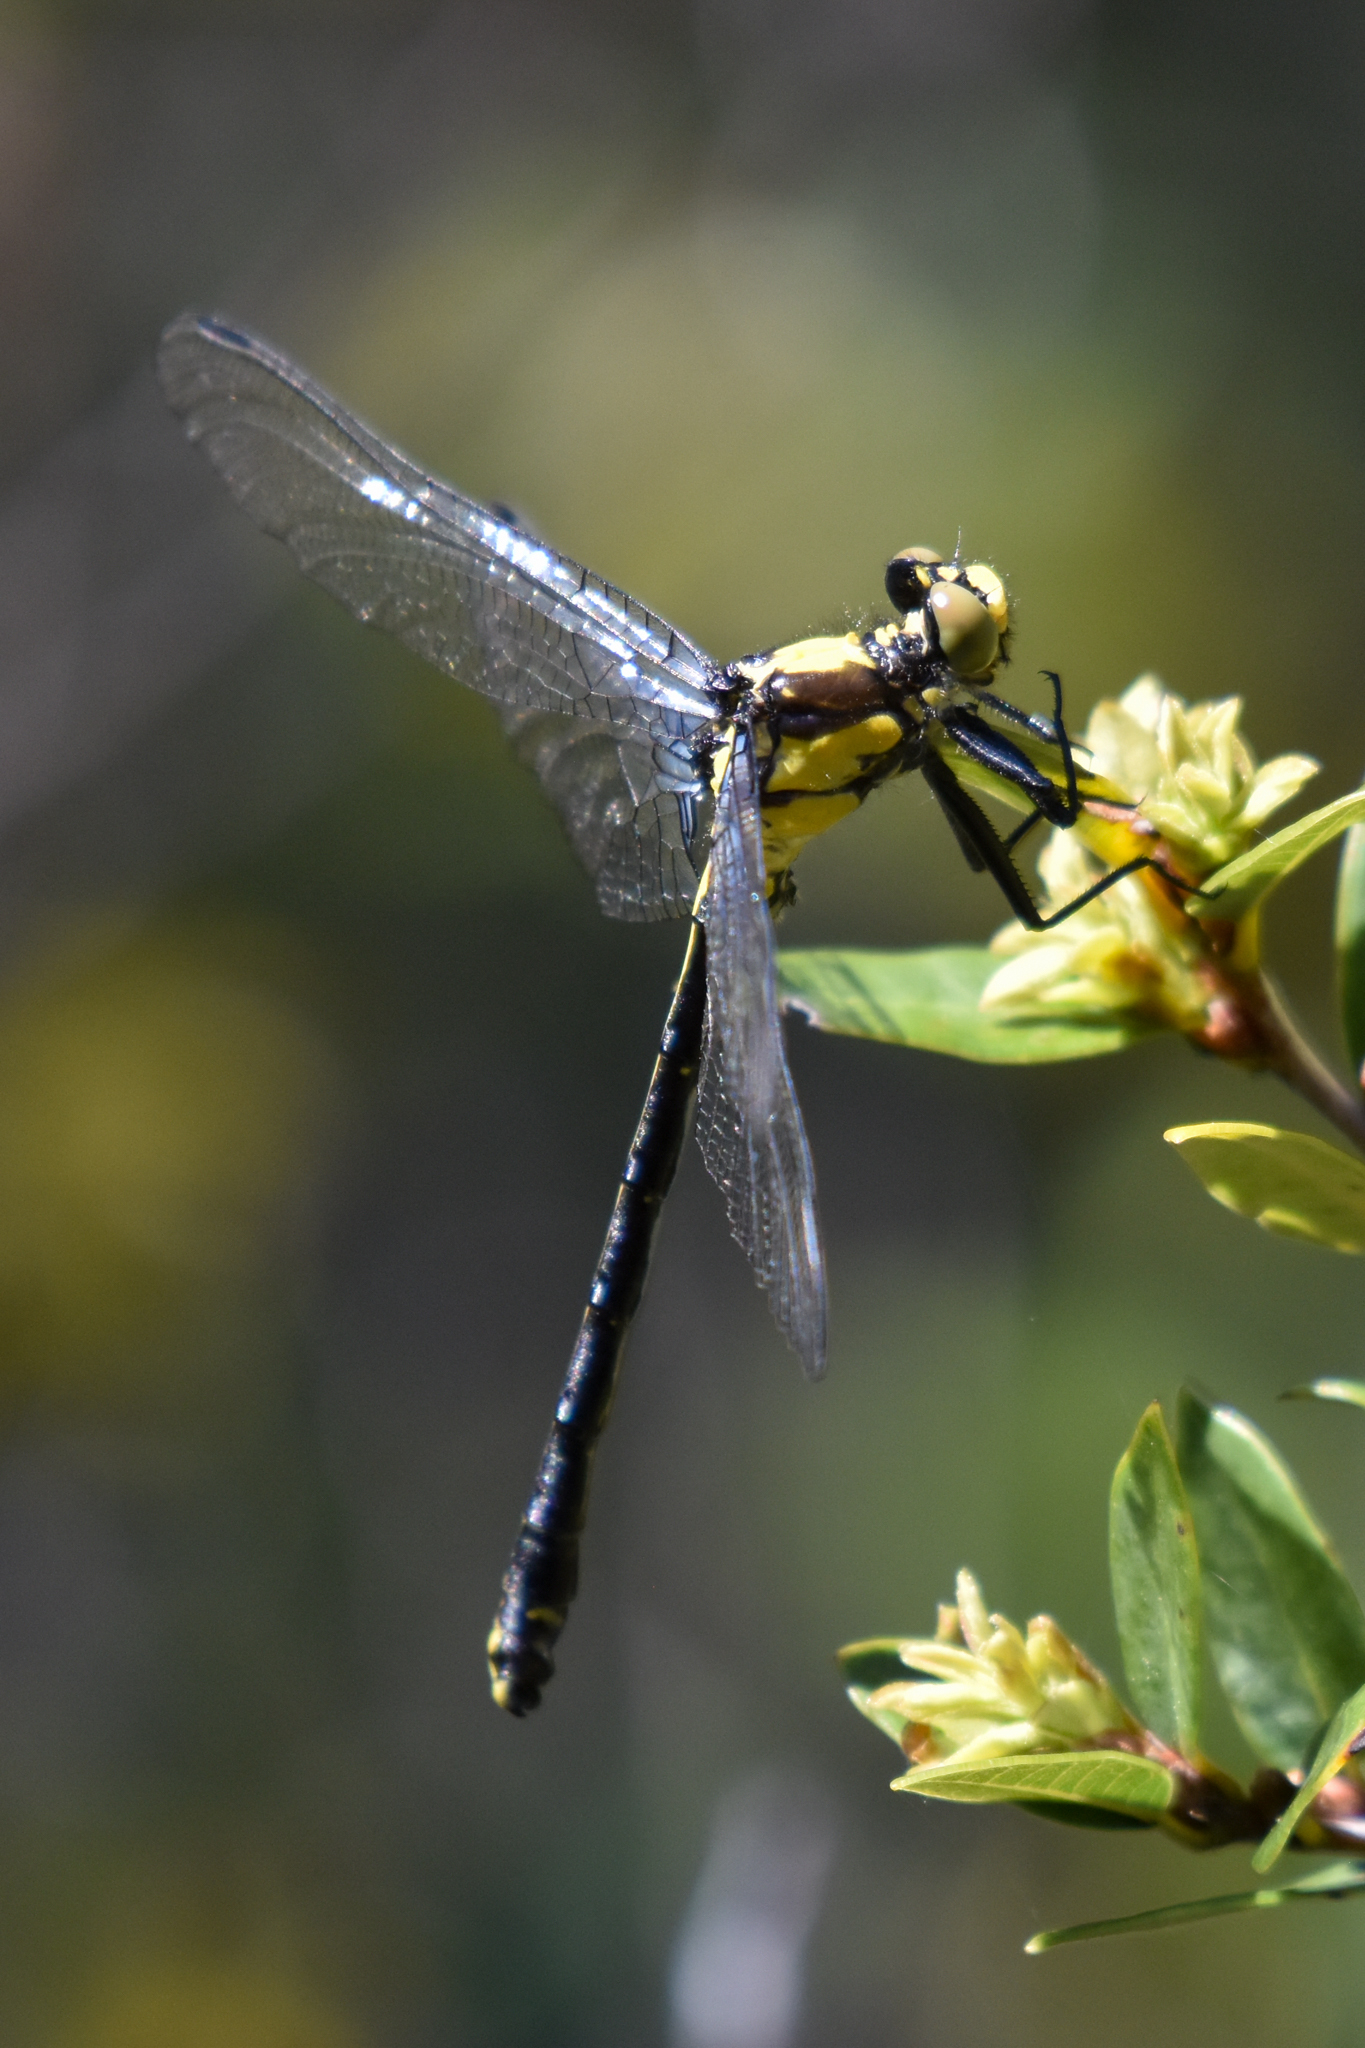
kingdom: Animalia
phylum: Arthropoda
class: Insecta
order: Odonata
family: Gomphidae
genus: Octogomphus
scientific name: Octogomphus specularis
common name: Grappletail
